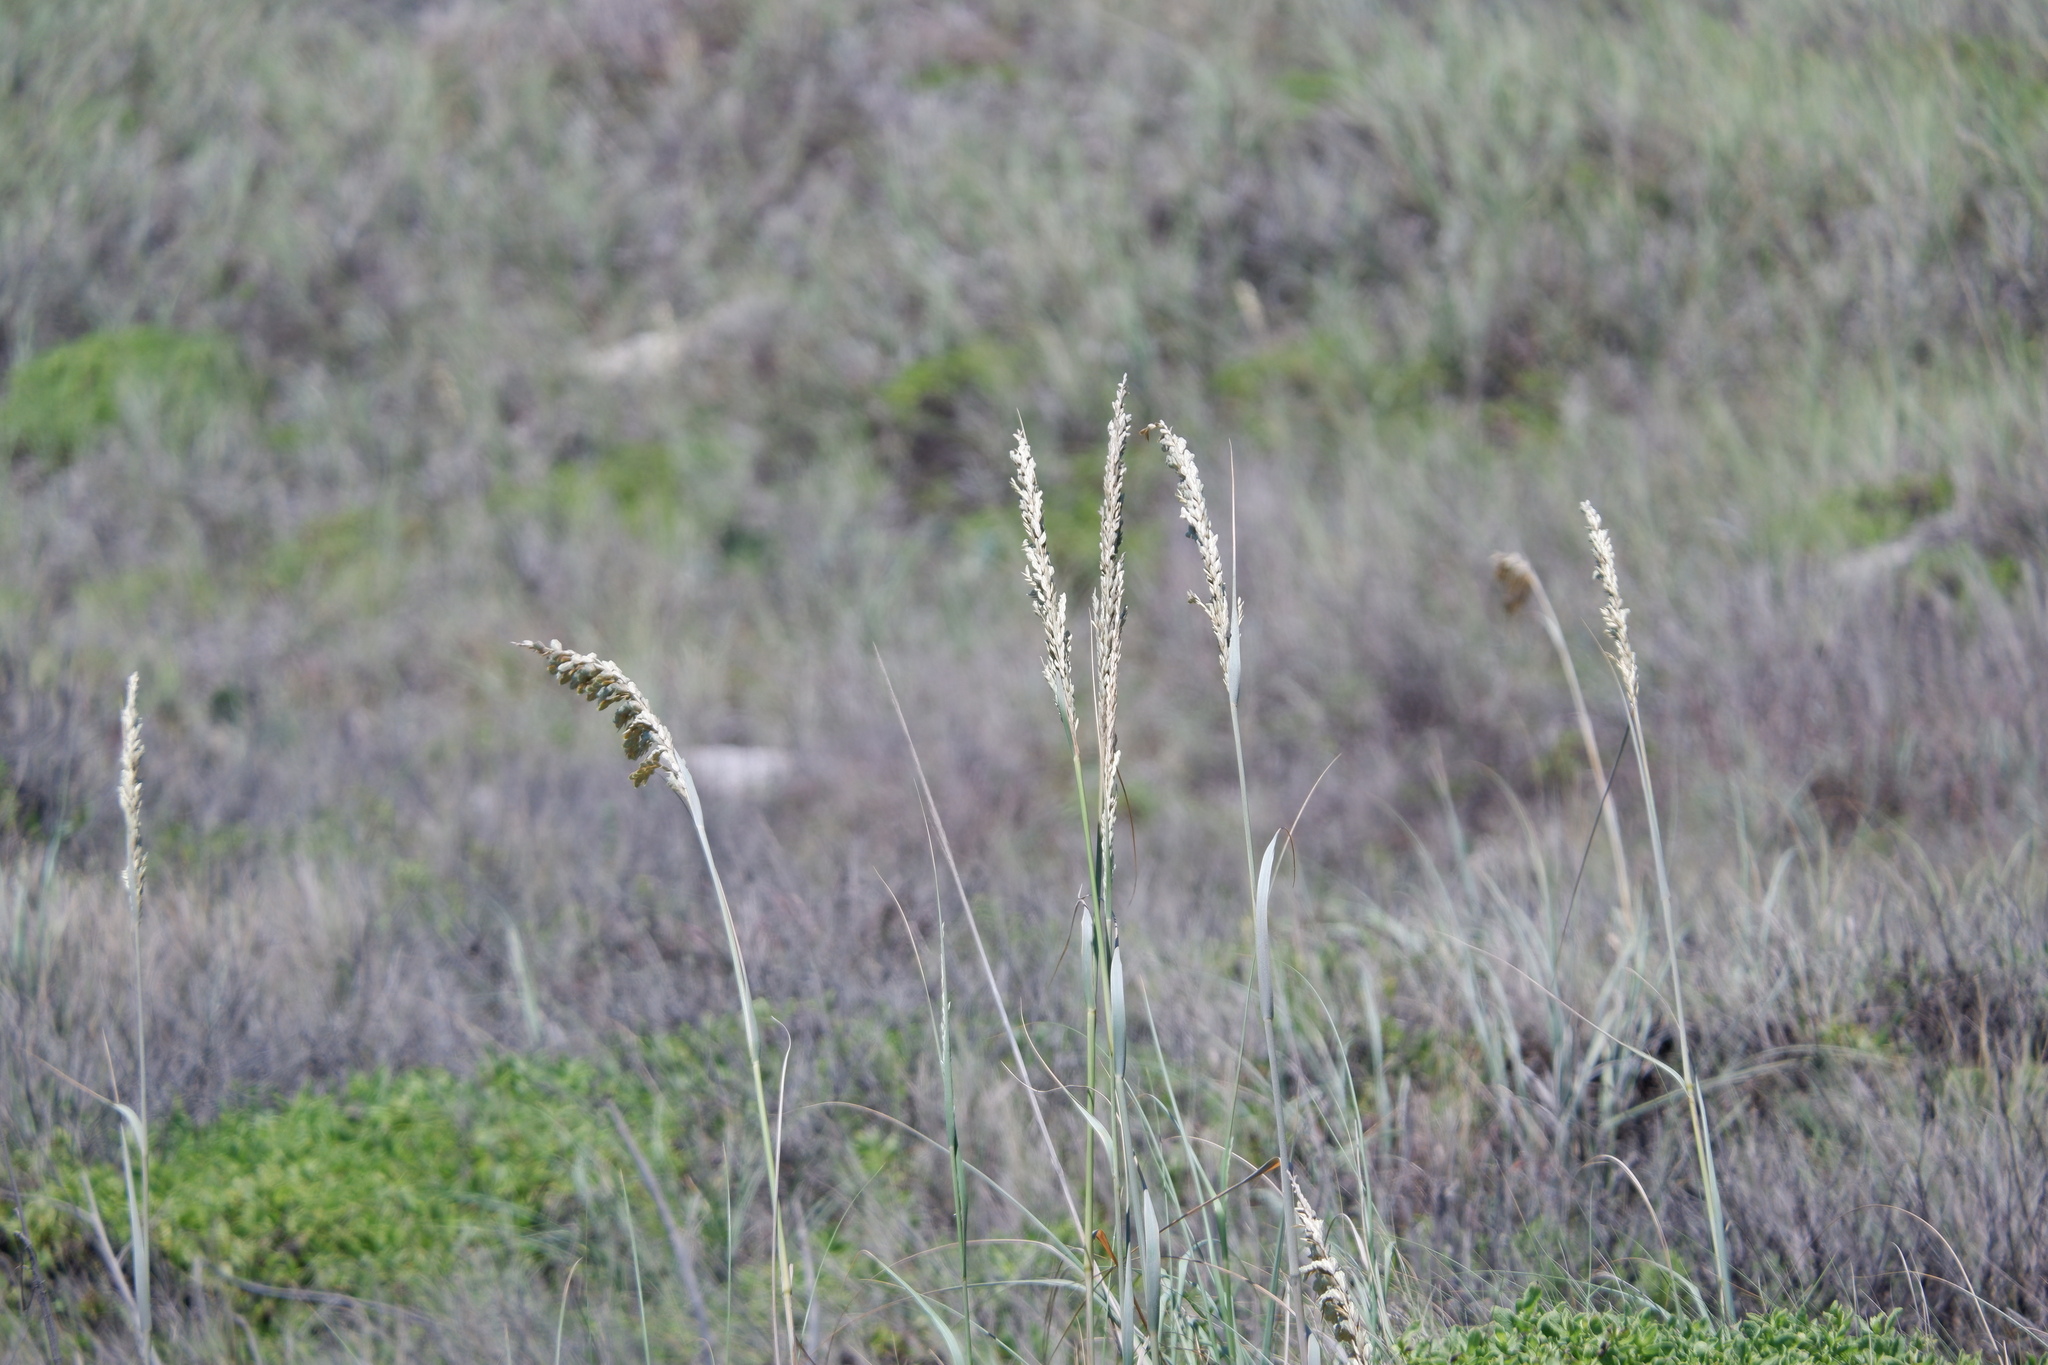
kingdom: Plantae
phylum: Tracheophyta
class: Liliopsida
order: Poales
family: Poaceae
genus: Uniola
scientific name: Uniola paniculata
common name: Seaside-oats
